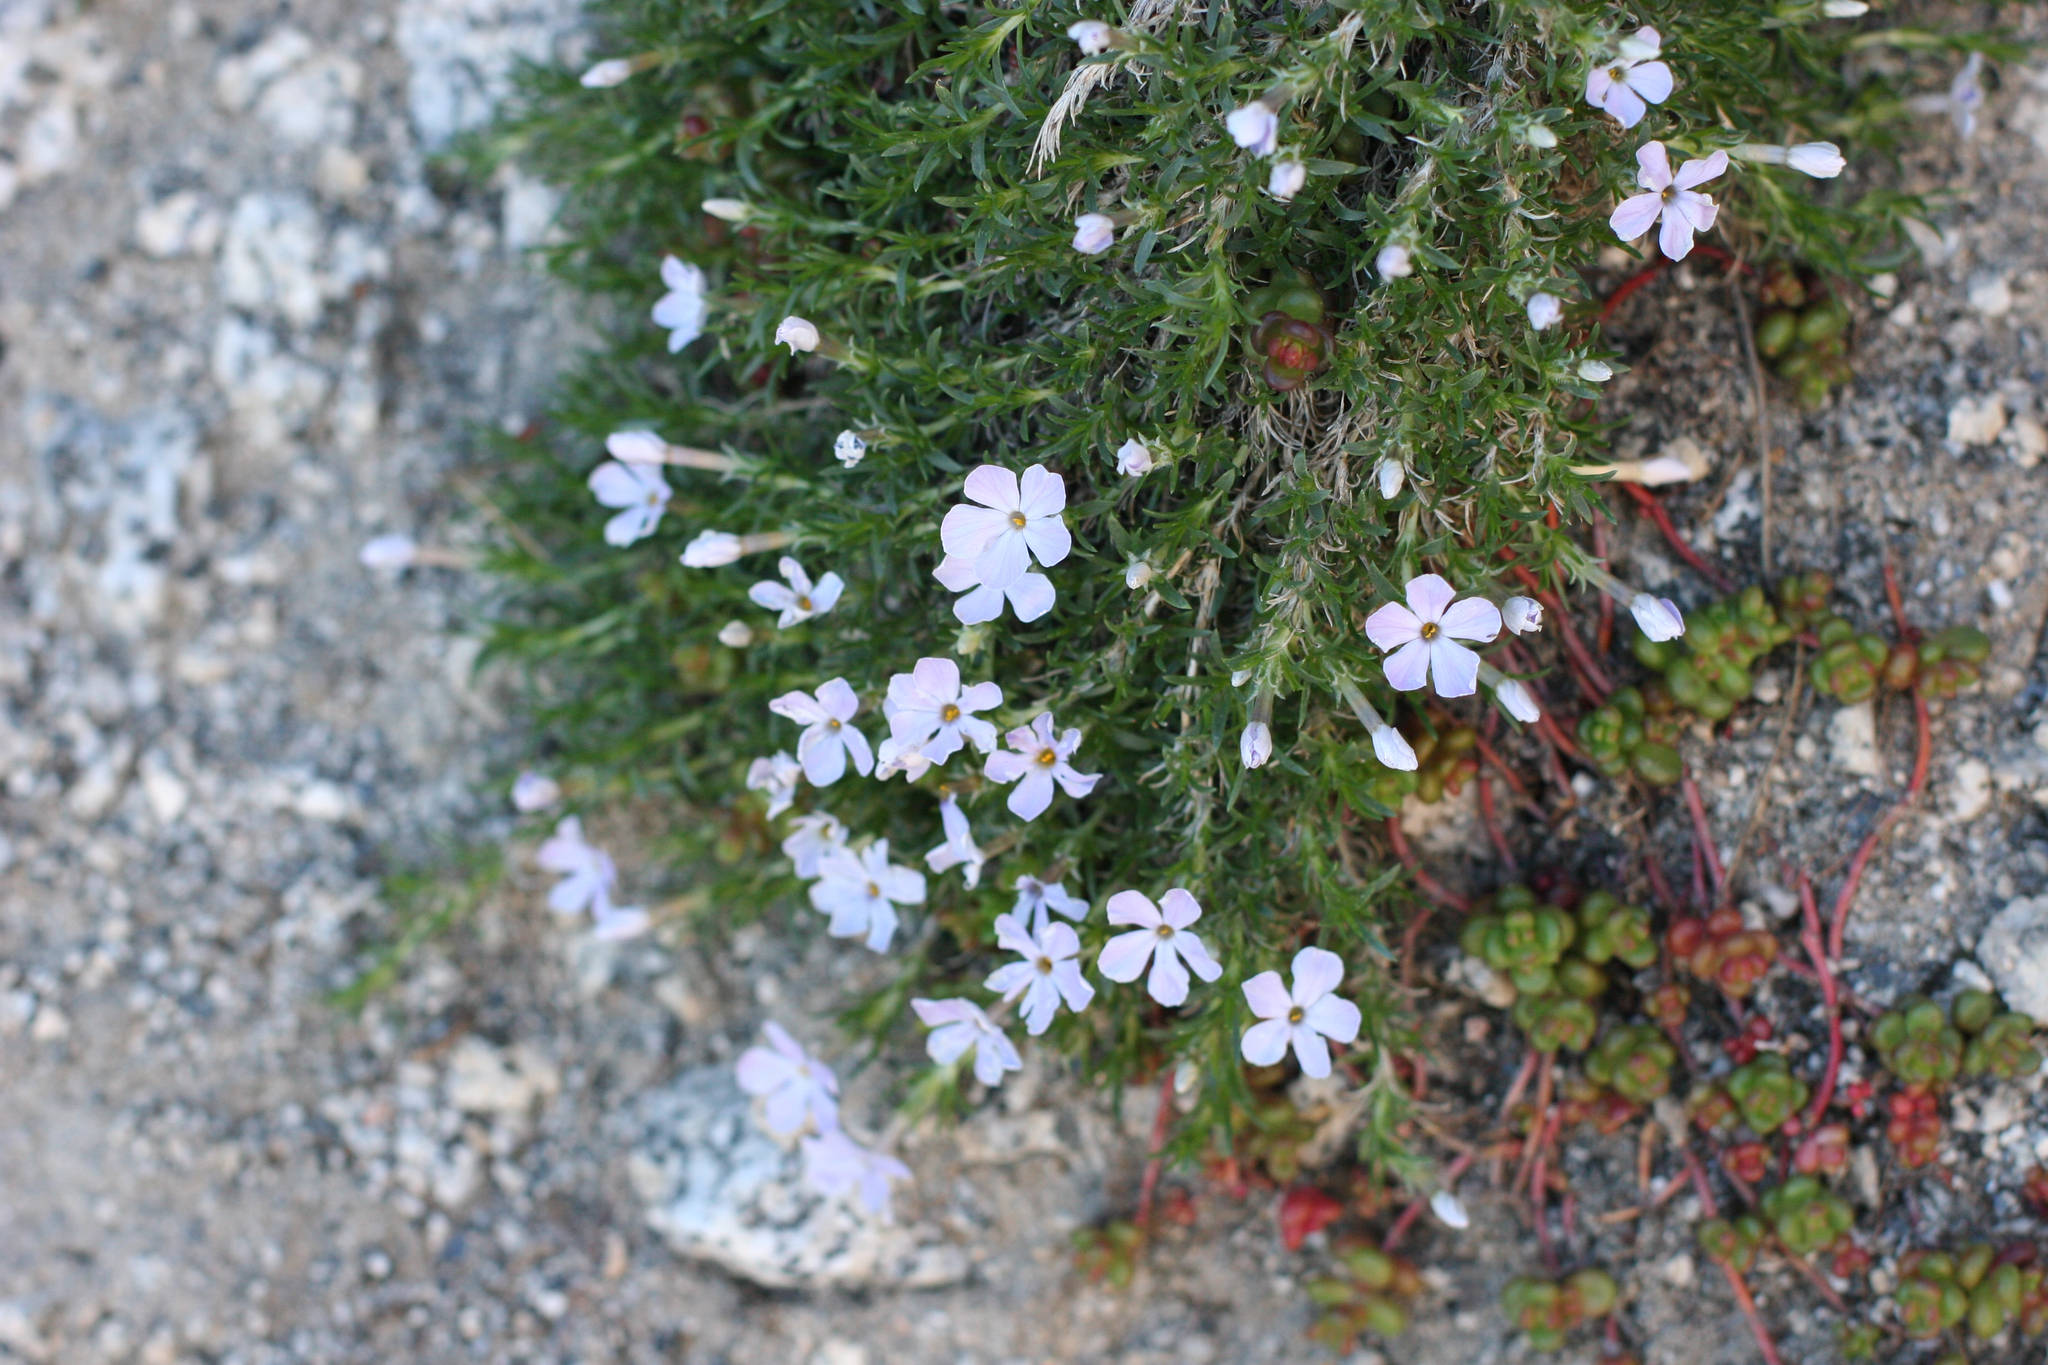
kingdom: Plantae
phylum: Tracheophyta
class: Magnoliopsida
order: Ericales
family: Polemoniaceae
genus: Phlox
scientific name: Phlox diffusa
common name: Mat phlox
